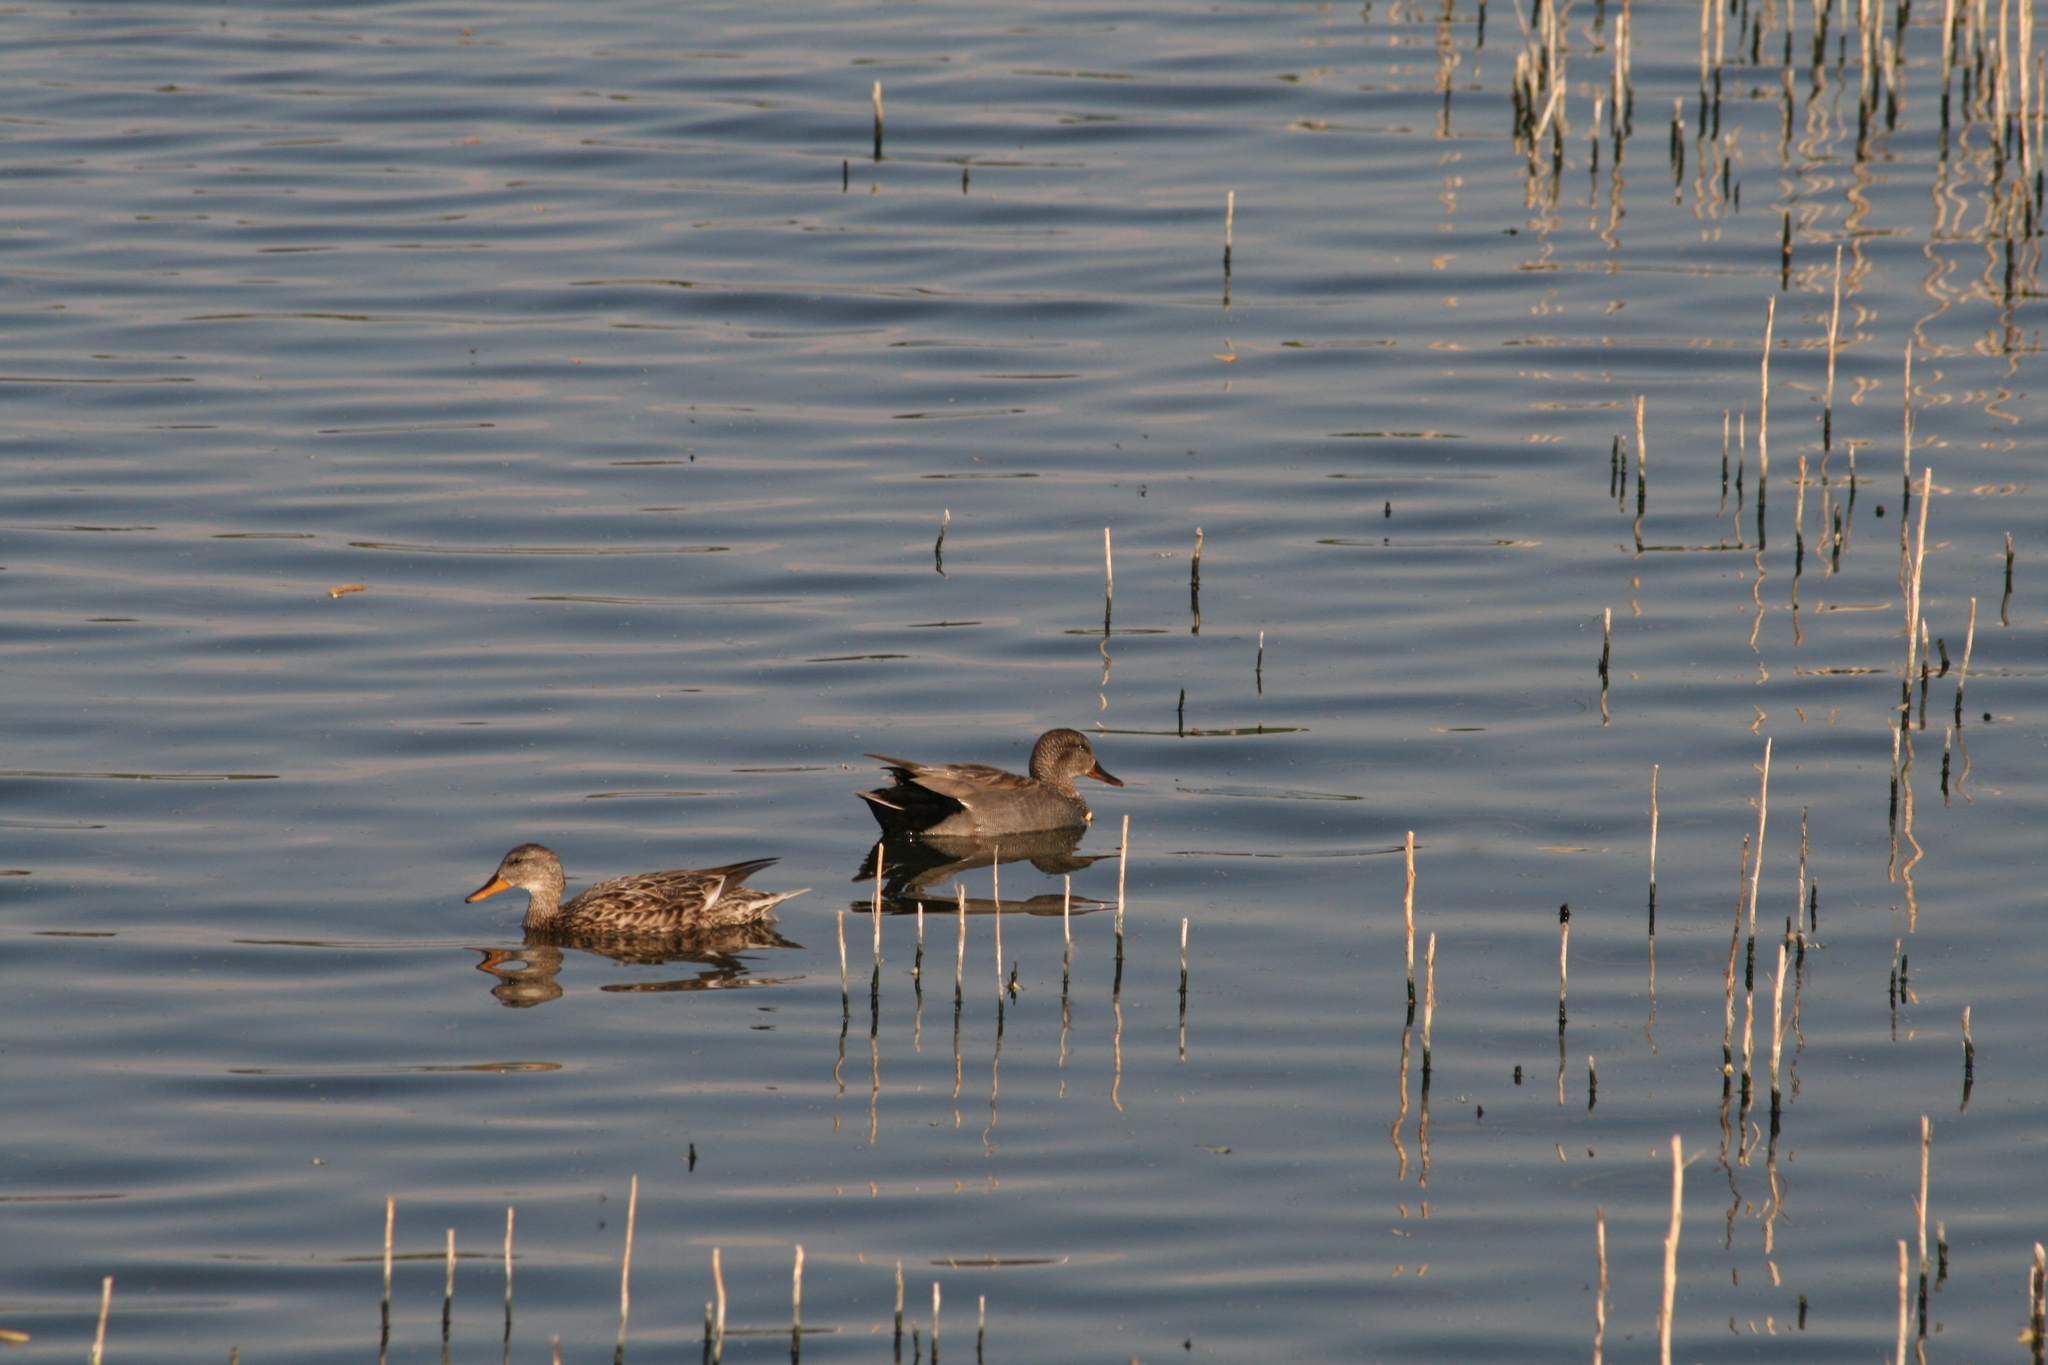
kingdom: Animalia
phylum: Chordata
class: Aves
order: Anseriformes
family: Anatidae
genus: Mareca
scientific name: Mareca strepera
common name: Gadwall
